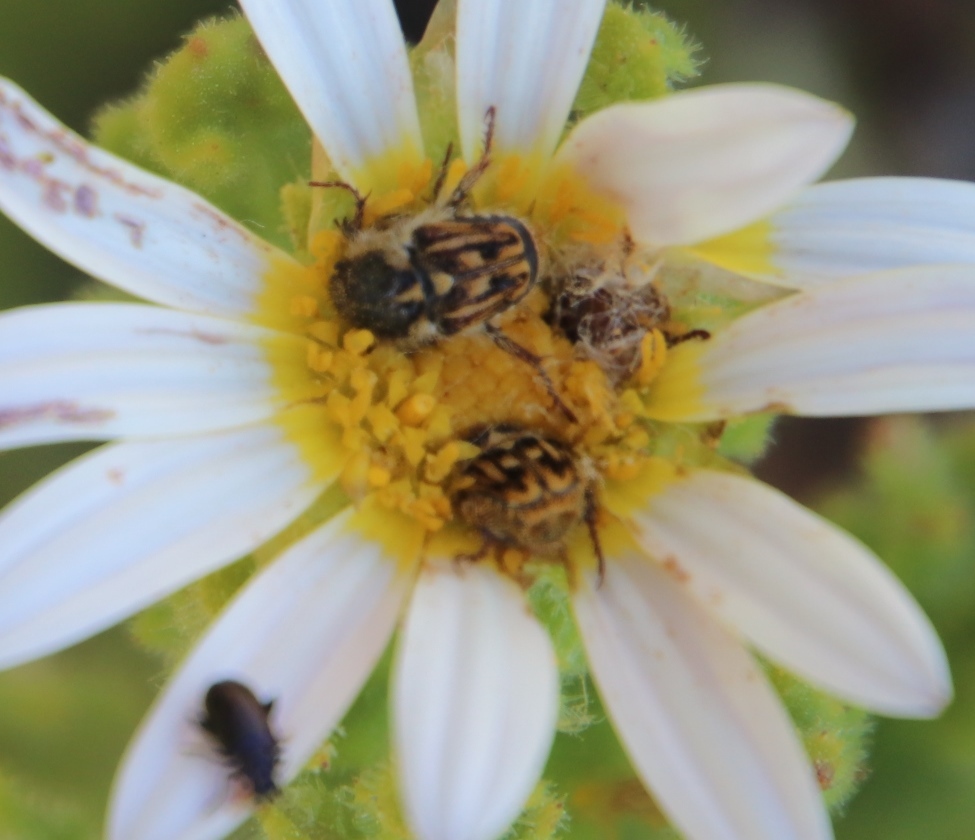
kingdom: Plantae
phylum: Tracheophyta
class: Magnoliopsida
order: Asterales
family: Asteraceae
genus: Arctotis
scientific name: Arctotis aspera
